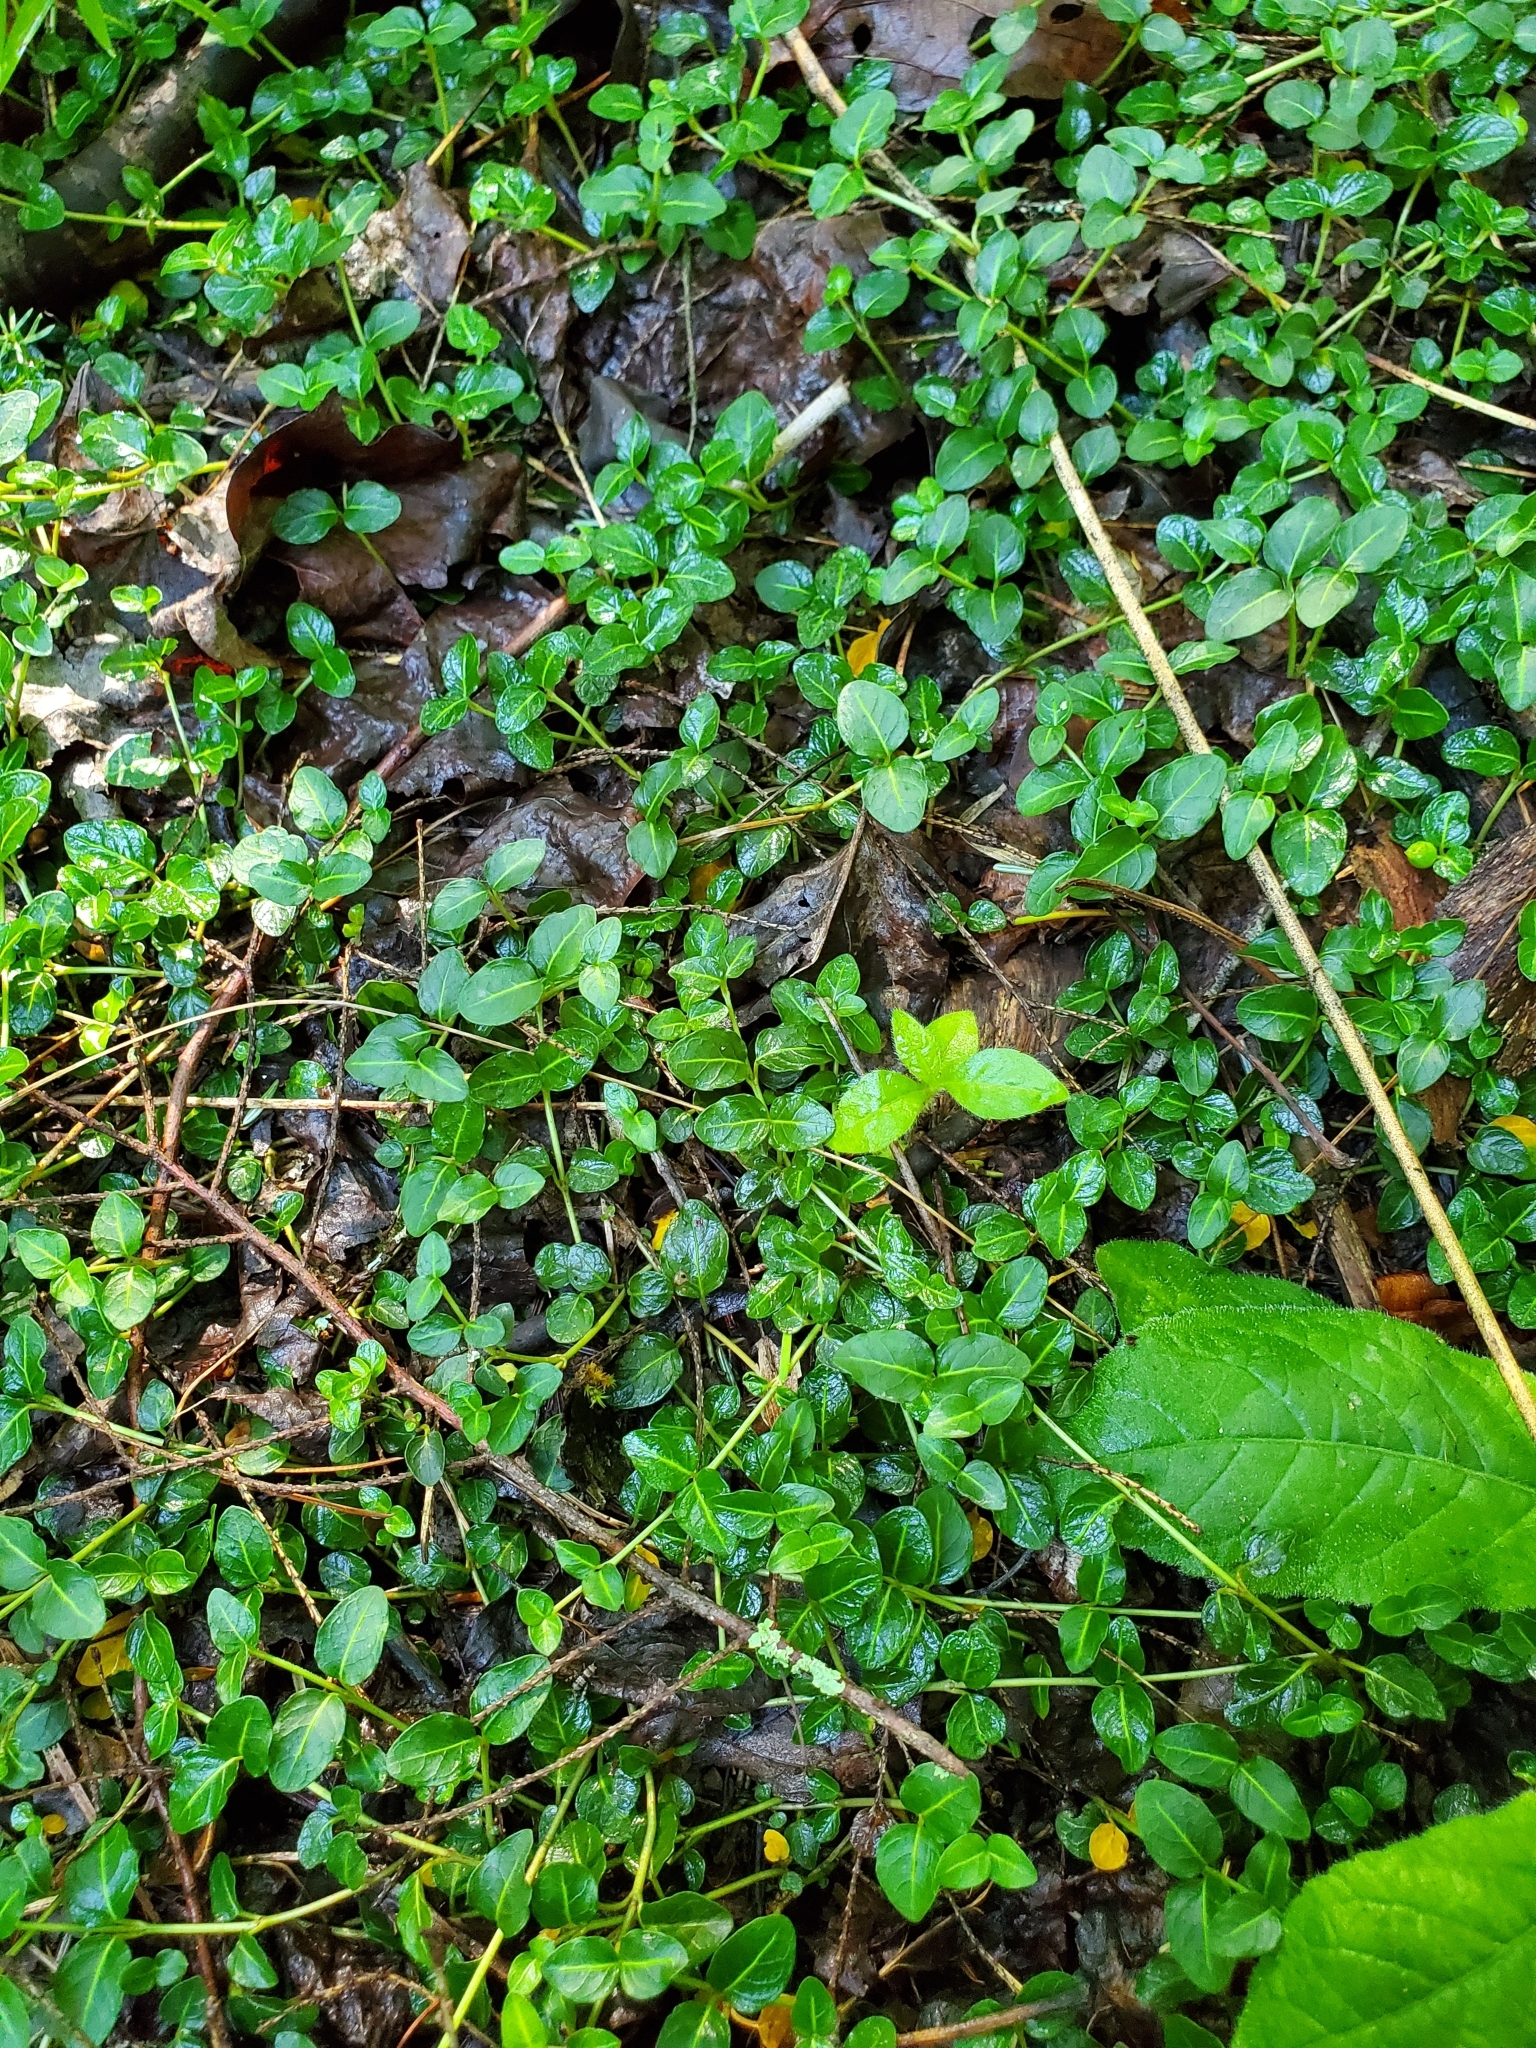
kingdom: Plantae
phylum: Tracheophyta
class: Magnoliopsida
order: Gentianales
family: Rubiaceae
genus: Mitchella
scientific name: Mitchella repens
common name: Partridge-berry
